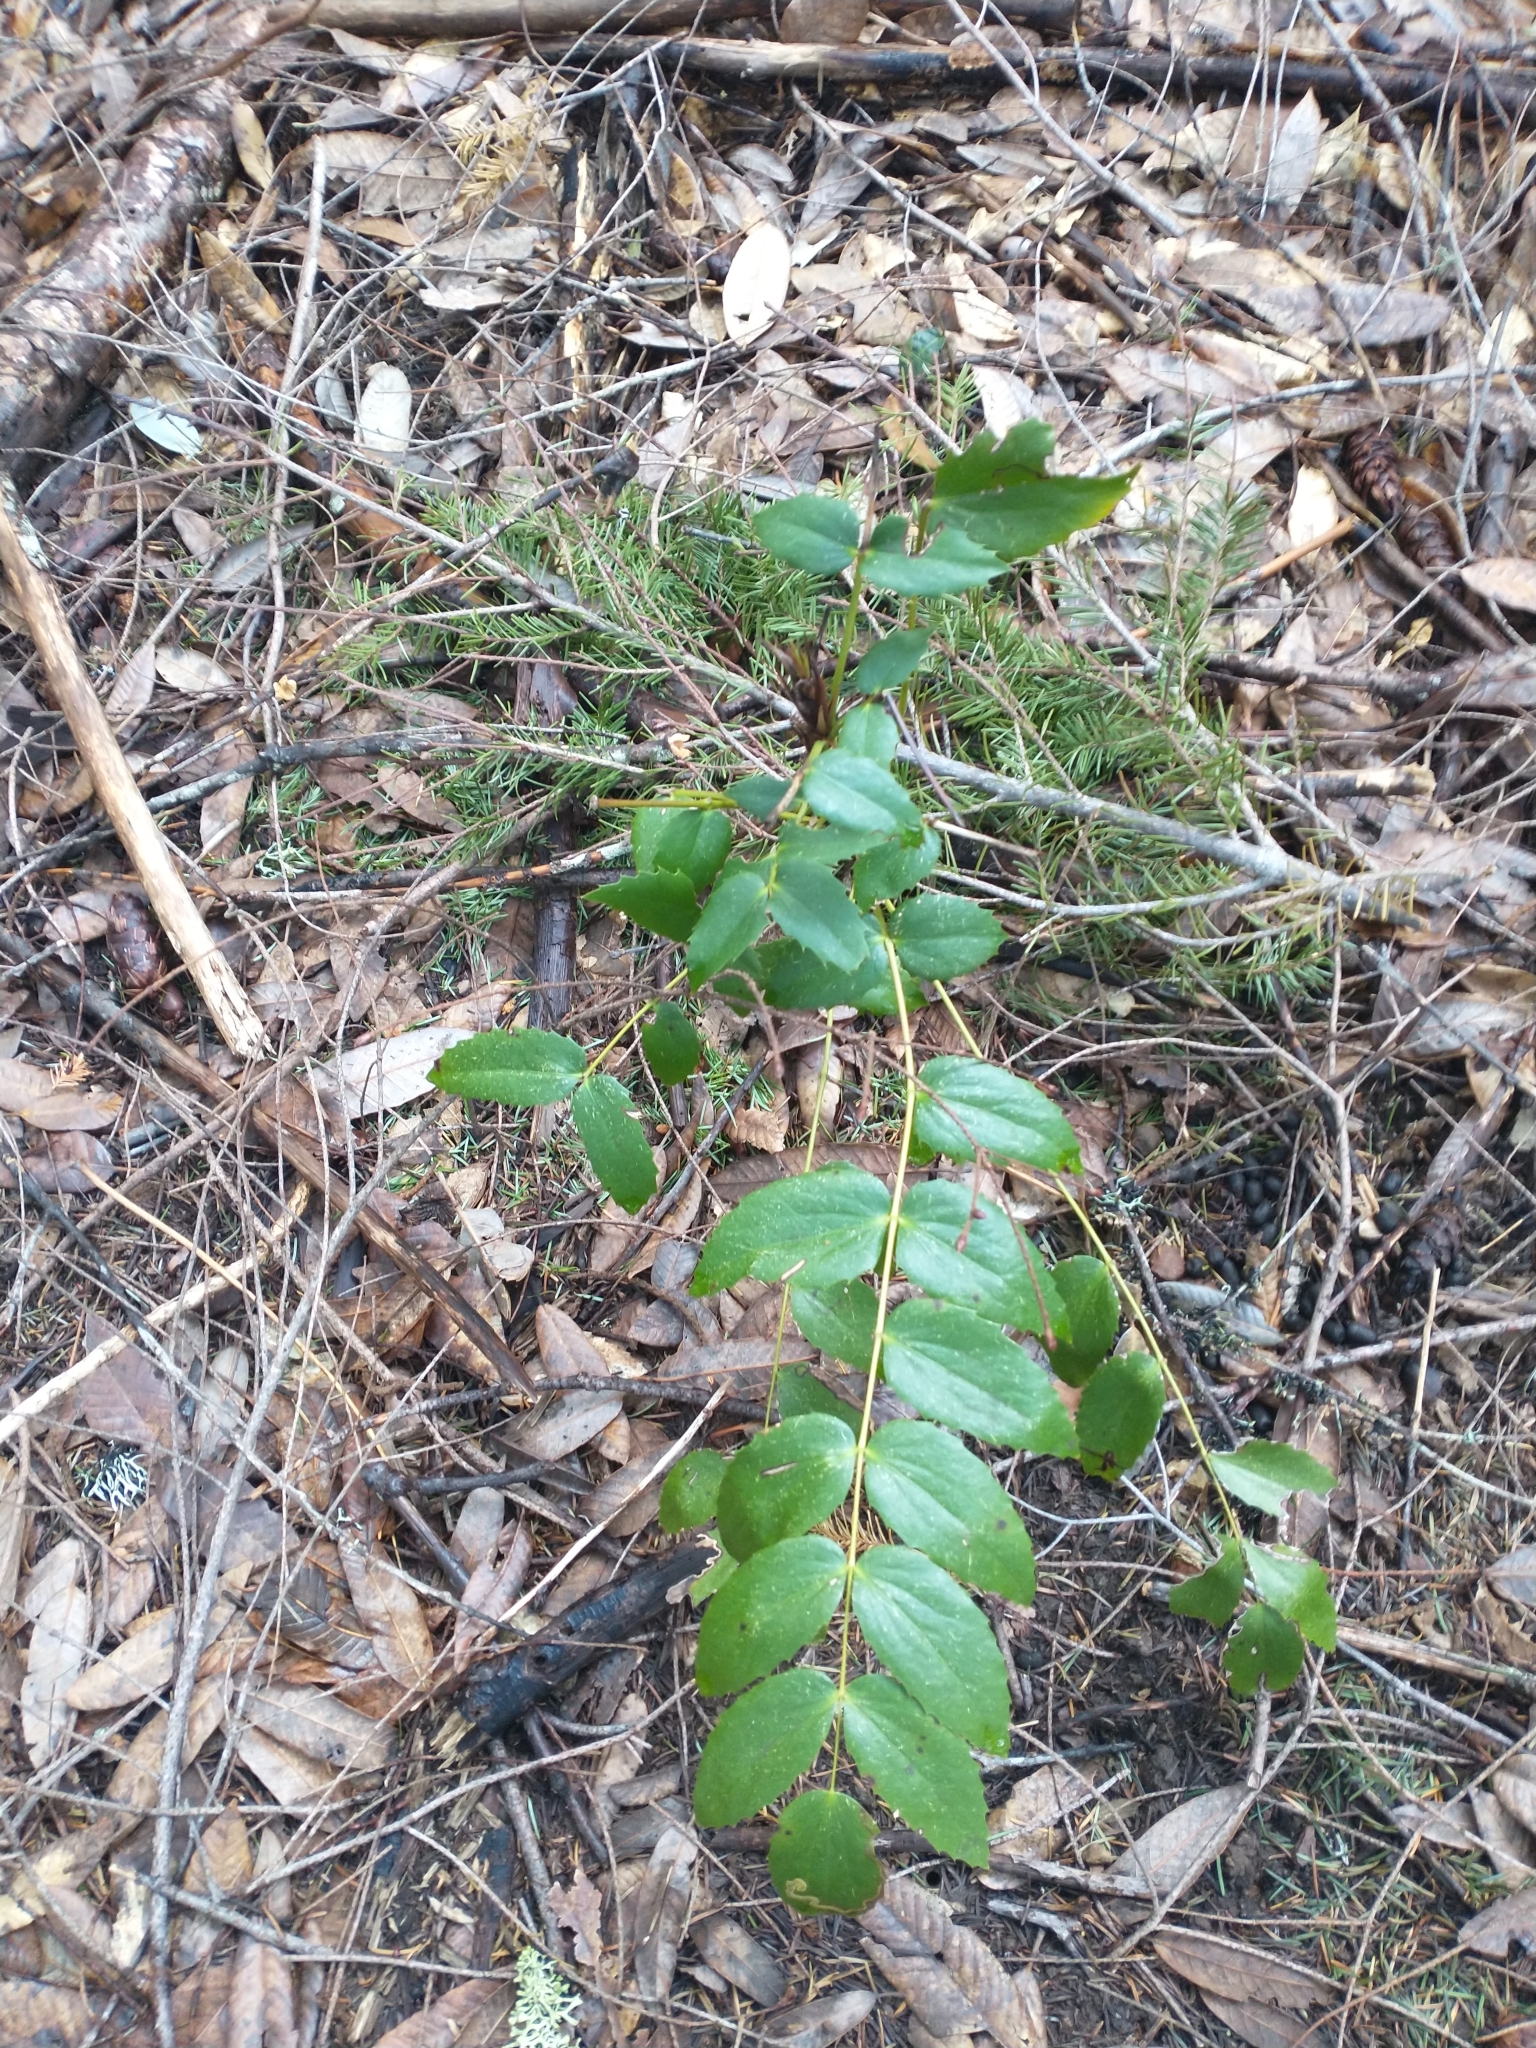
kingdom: Plantae
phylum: Tracheophyta
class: Magnoliopsida
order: Ranunculales
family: Berberidaceae
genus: Mahonia
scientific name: Mahonia nervosa
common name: Cascade oregon-grape
